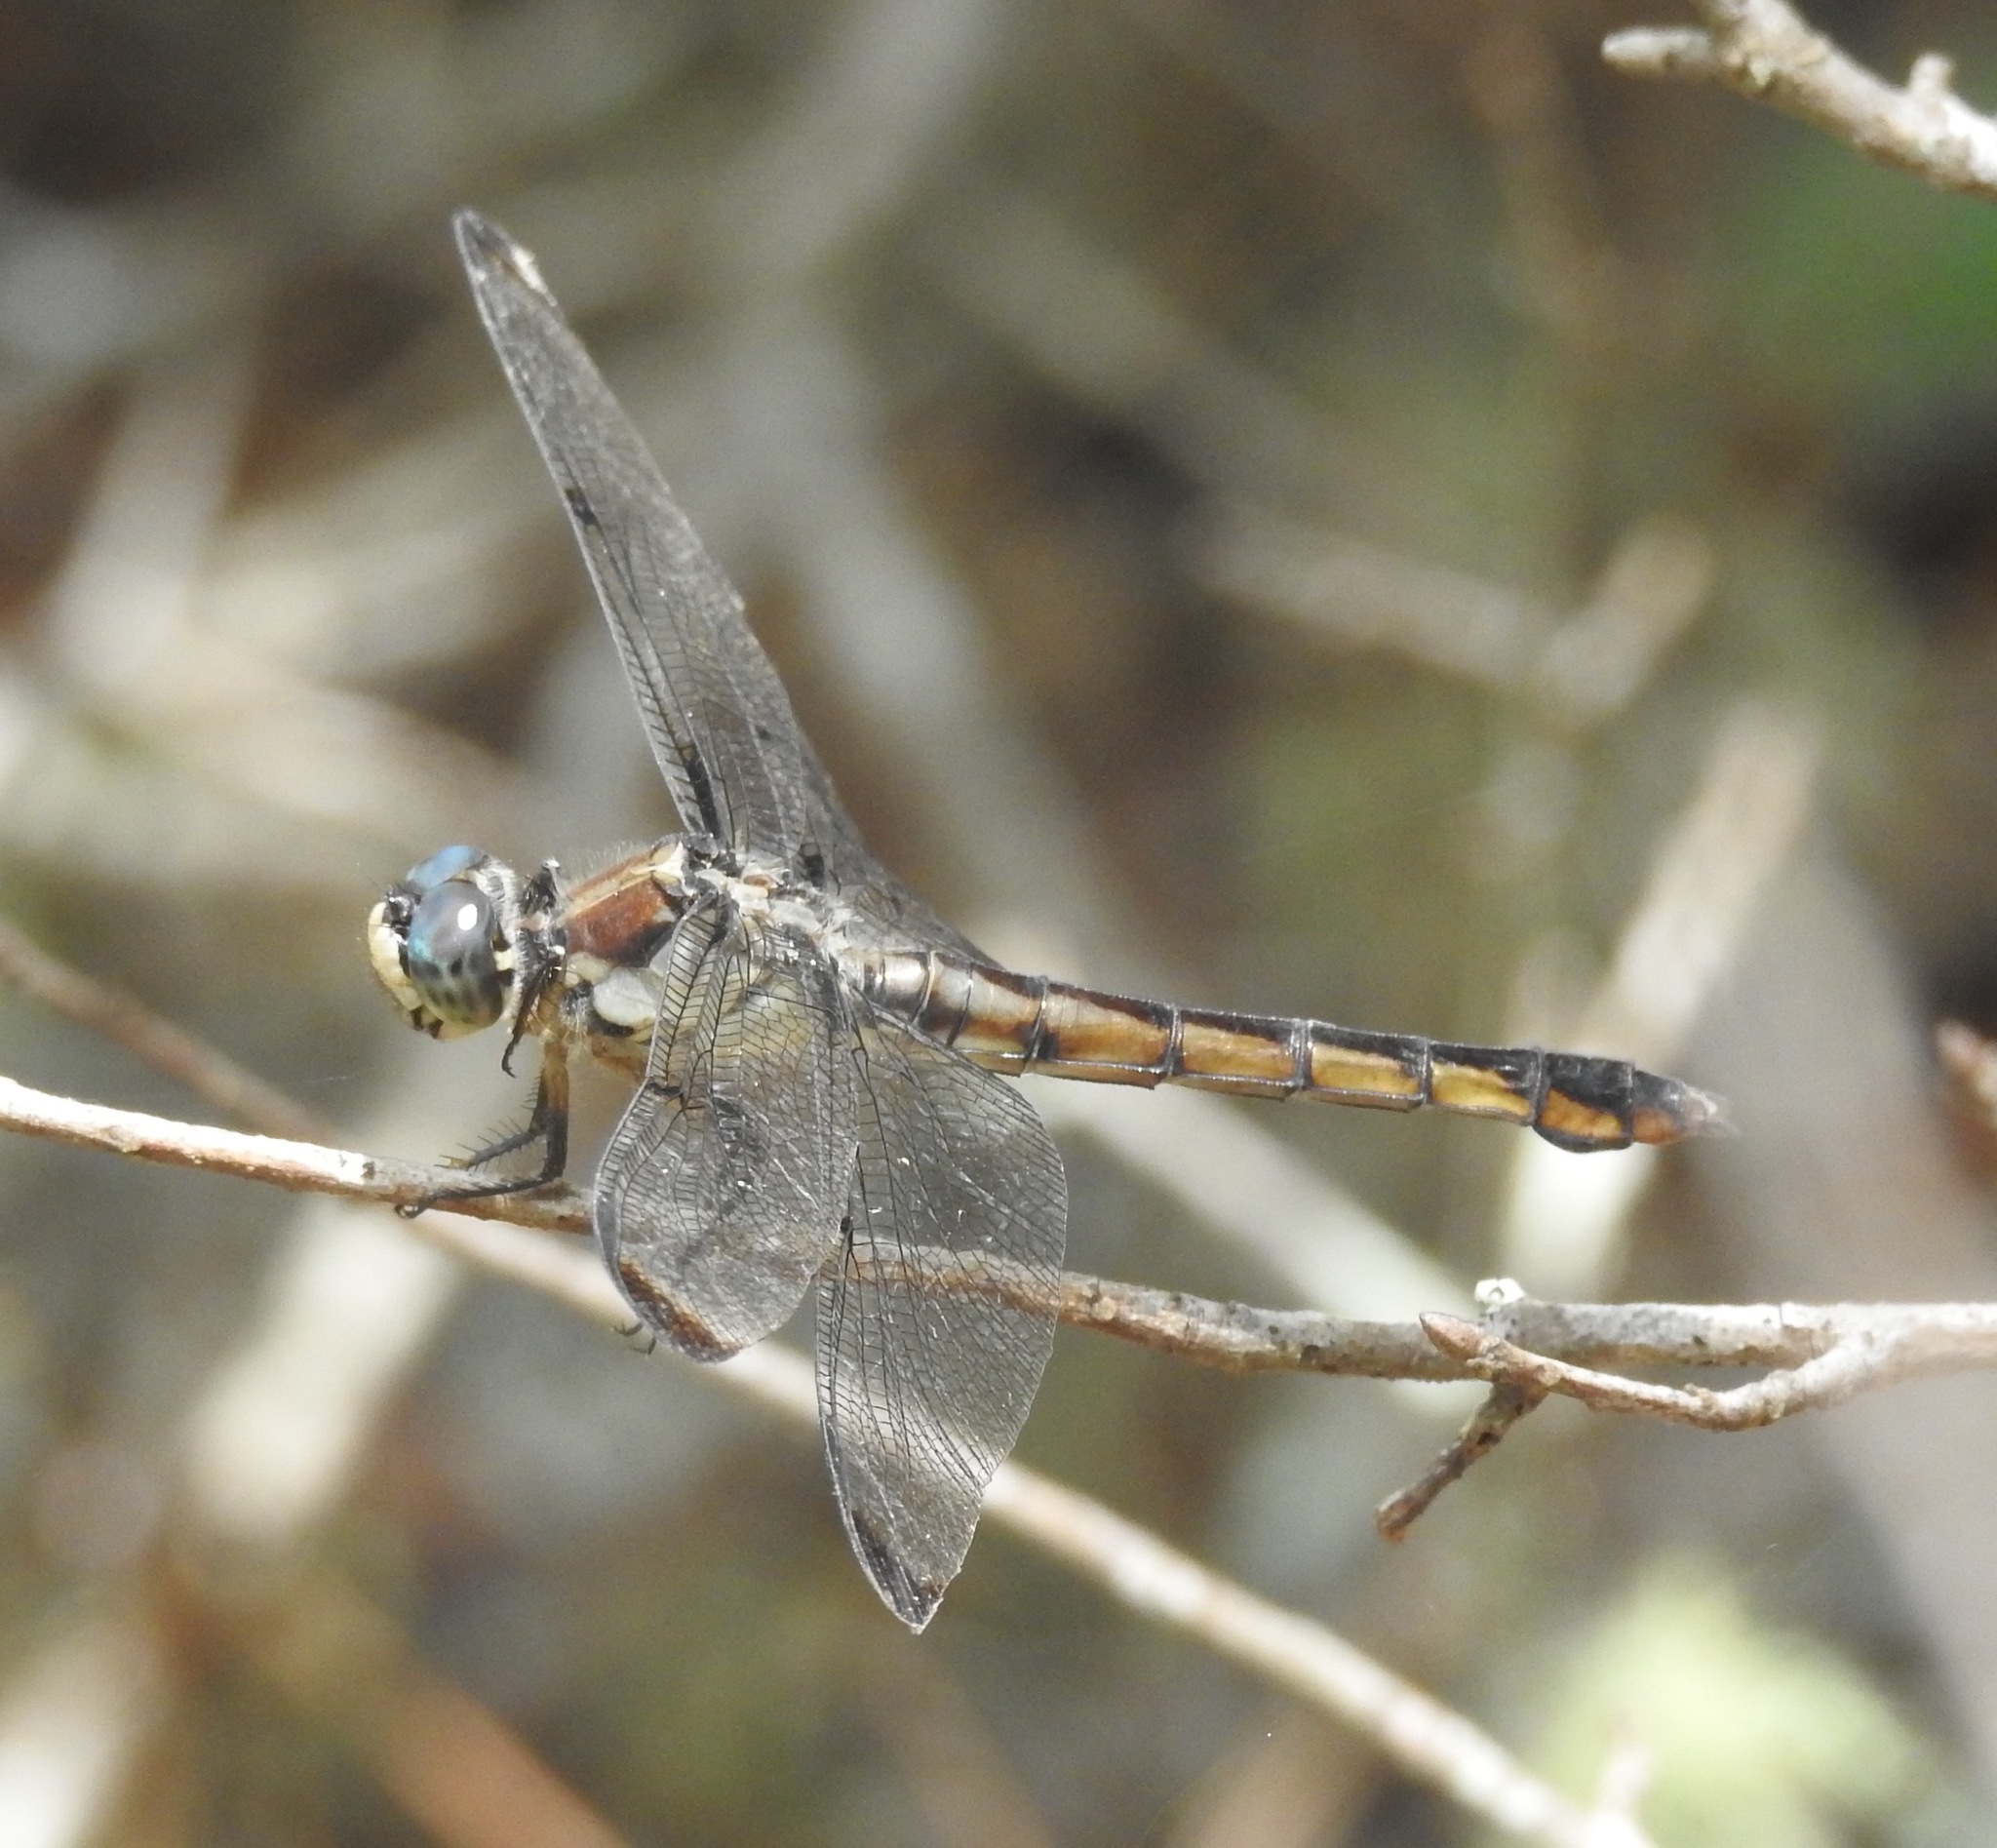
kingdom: Animalia
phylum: Arthropoda
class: Insecta
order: Odonata
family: Libellulidae
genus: Libellula
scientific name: Libellula vibrans
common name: Great blue skimmer
